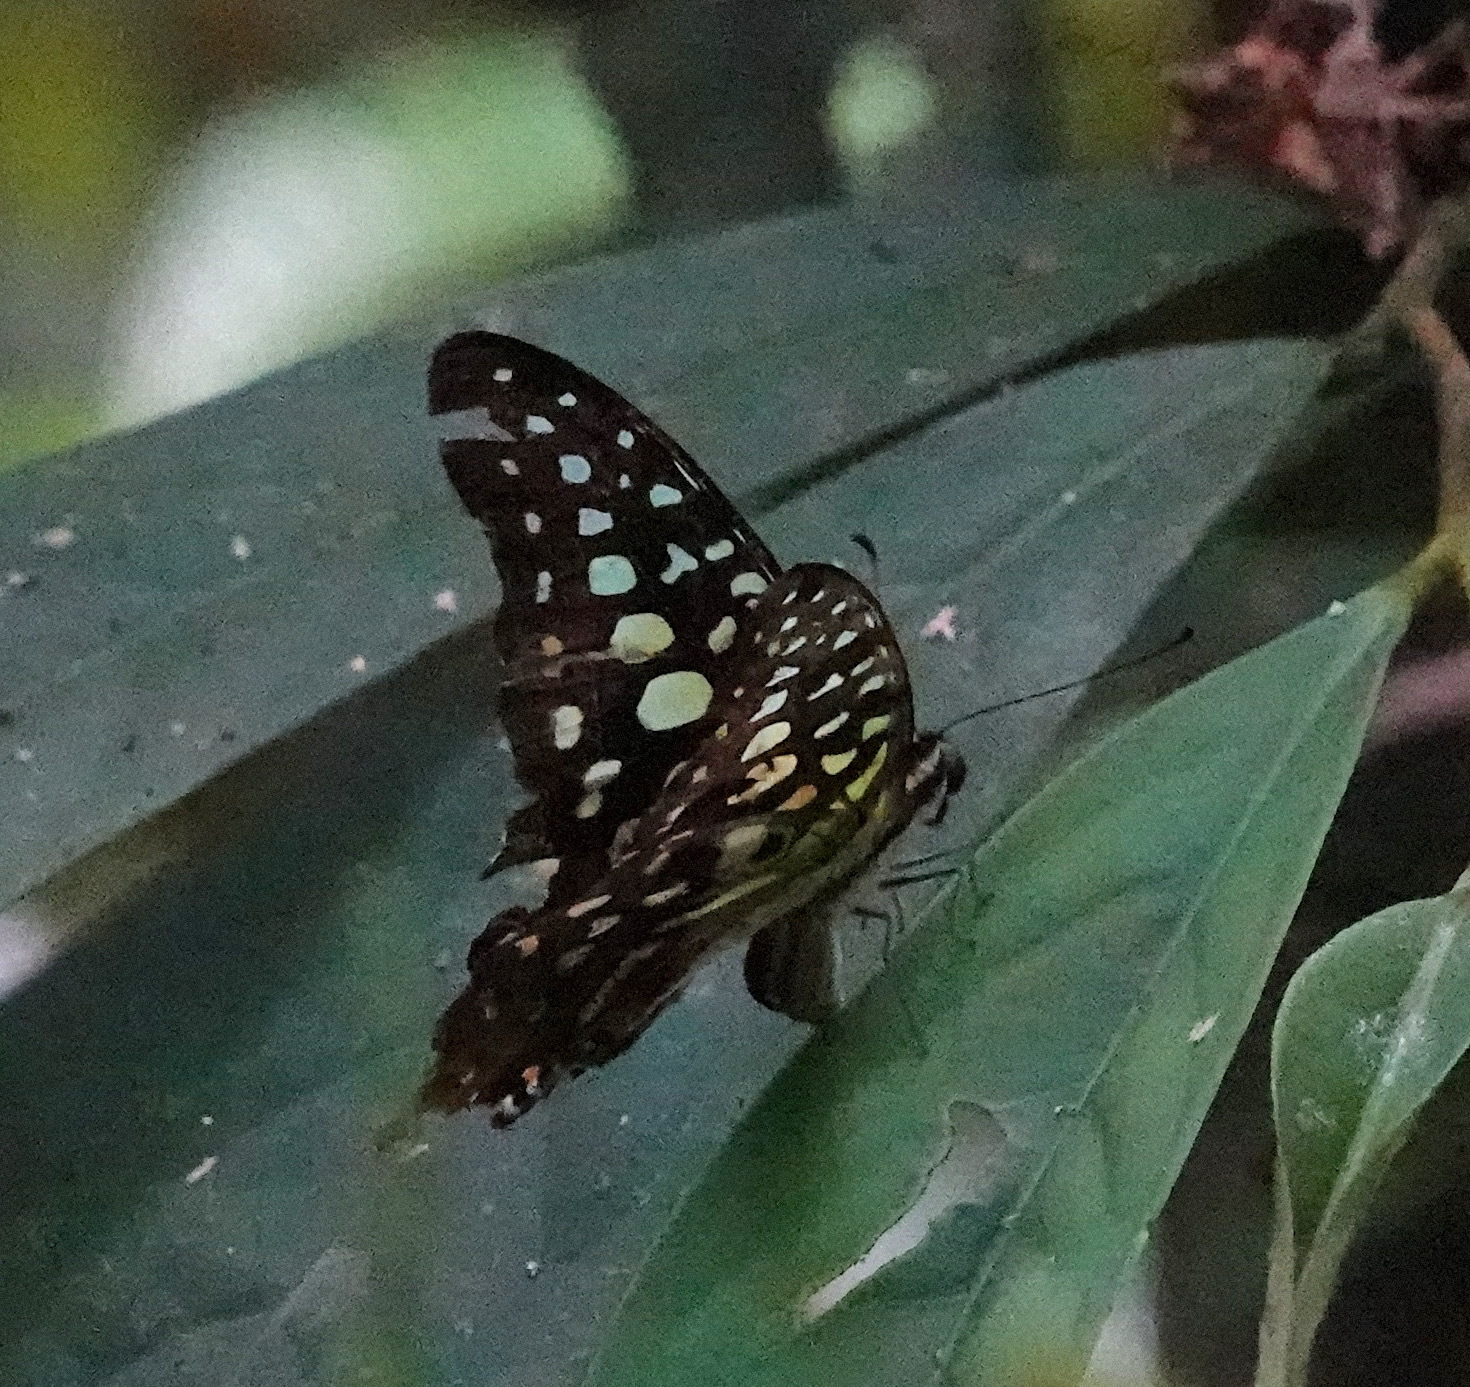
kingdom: Animalia
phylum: Arthropoda
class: Insecta
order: Lepidoptera
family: Papilionidae
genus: Graphium
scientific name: Graphium agamemnon
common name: Tailed jay
